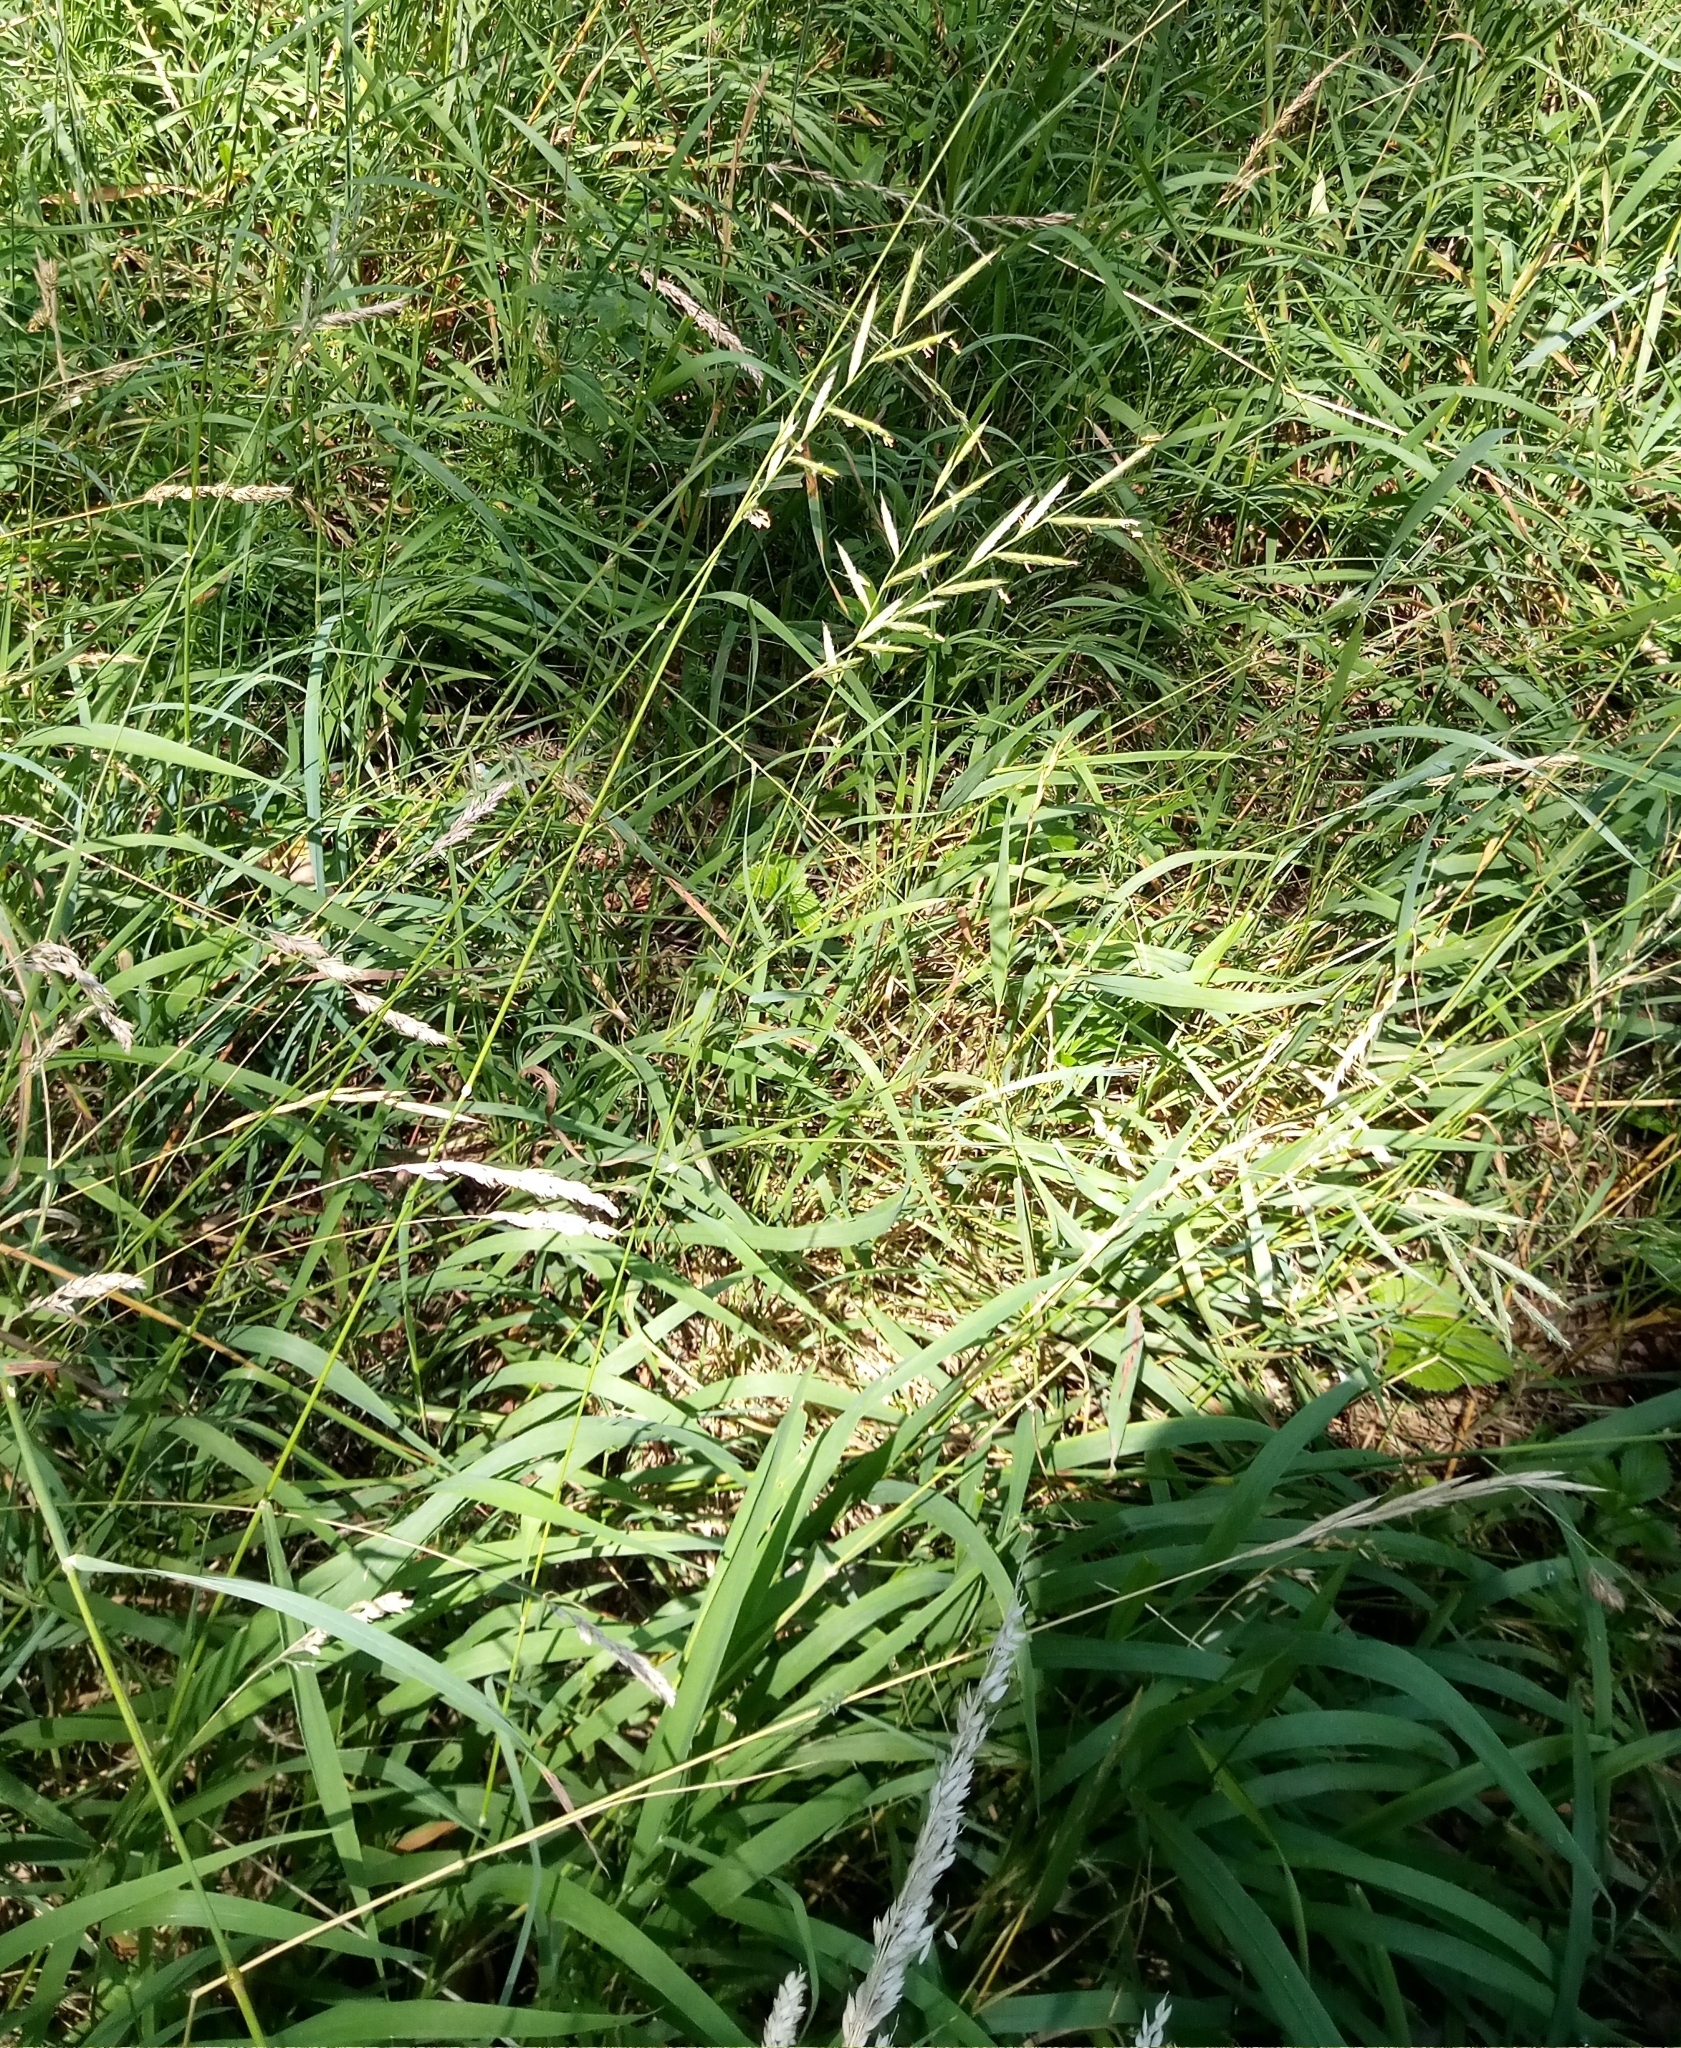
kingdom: Plantae
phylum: Tracheophyta
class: Liliopsida
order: Poales
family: Poaceae
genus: Brachypodium
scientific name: Brachypodium pinnatum
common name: Tor grass
